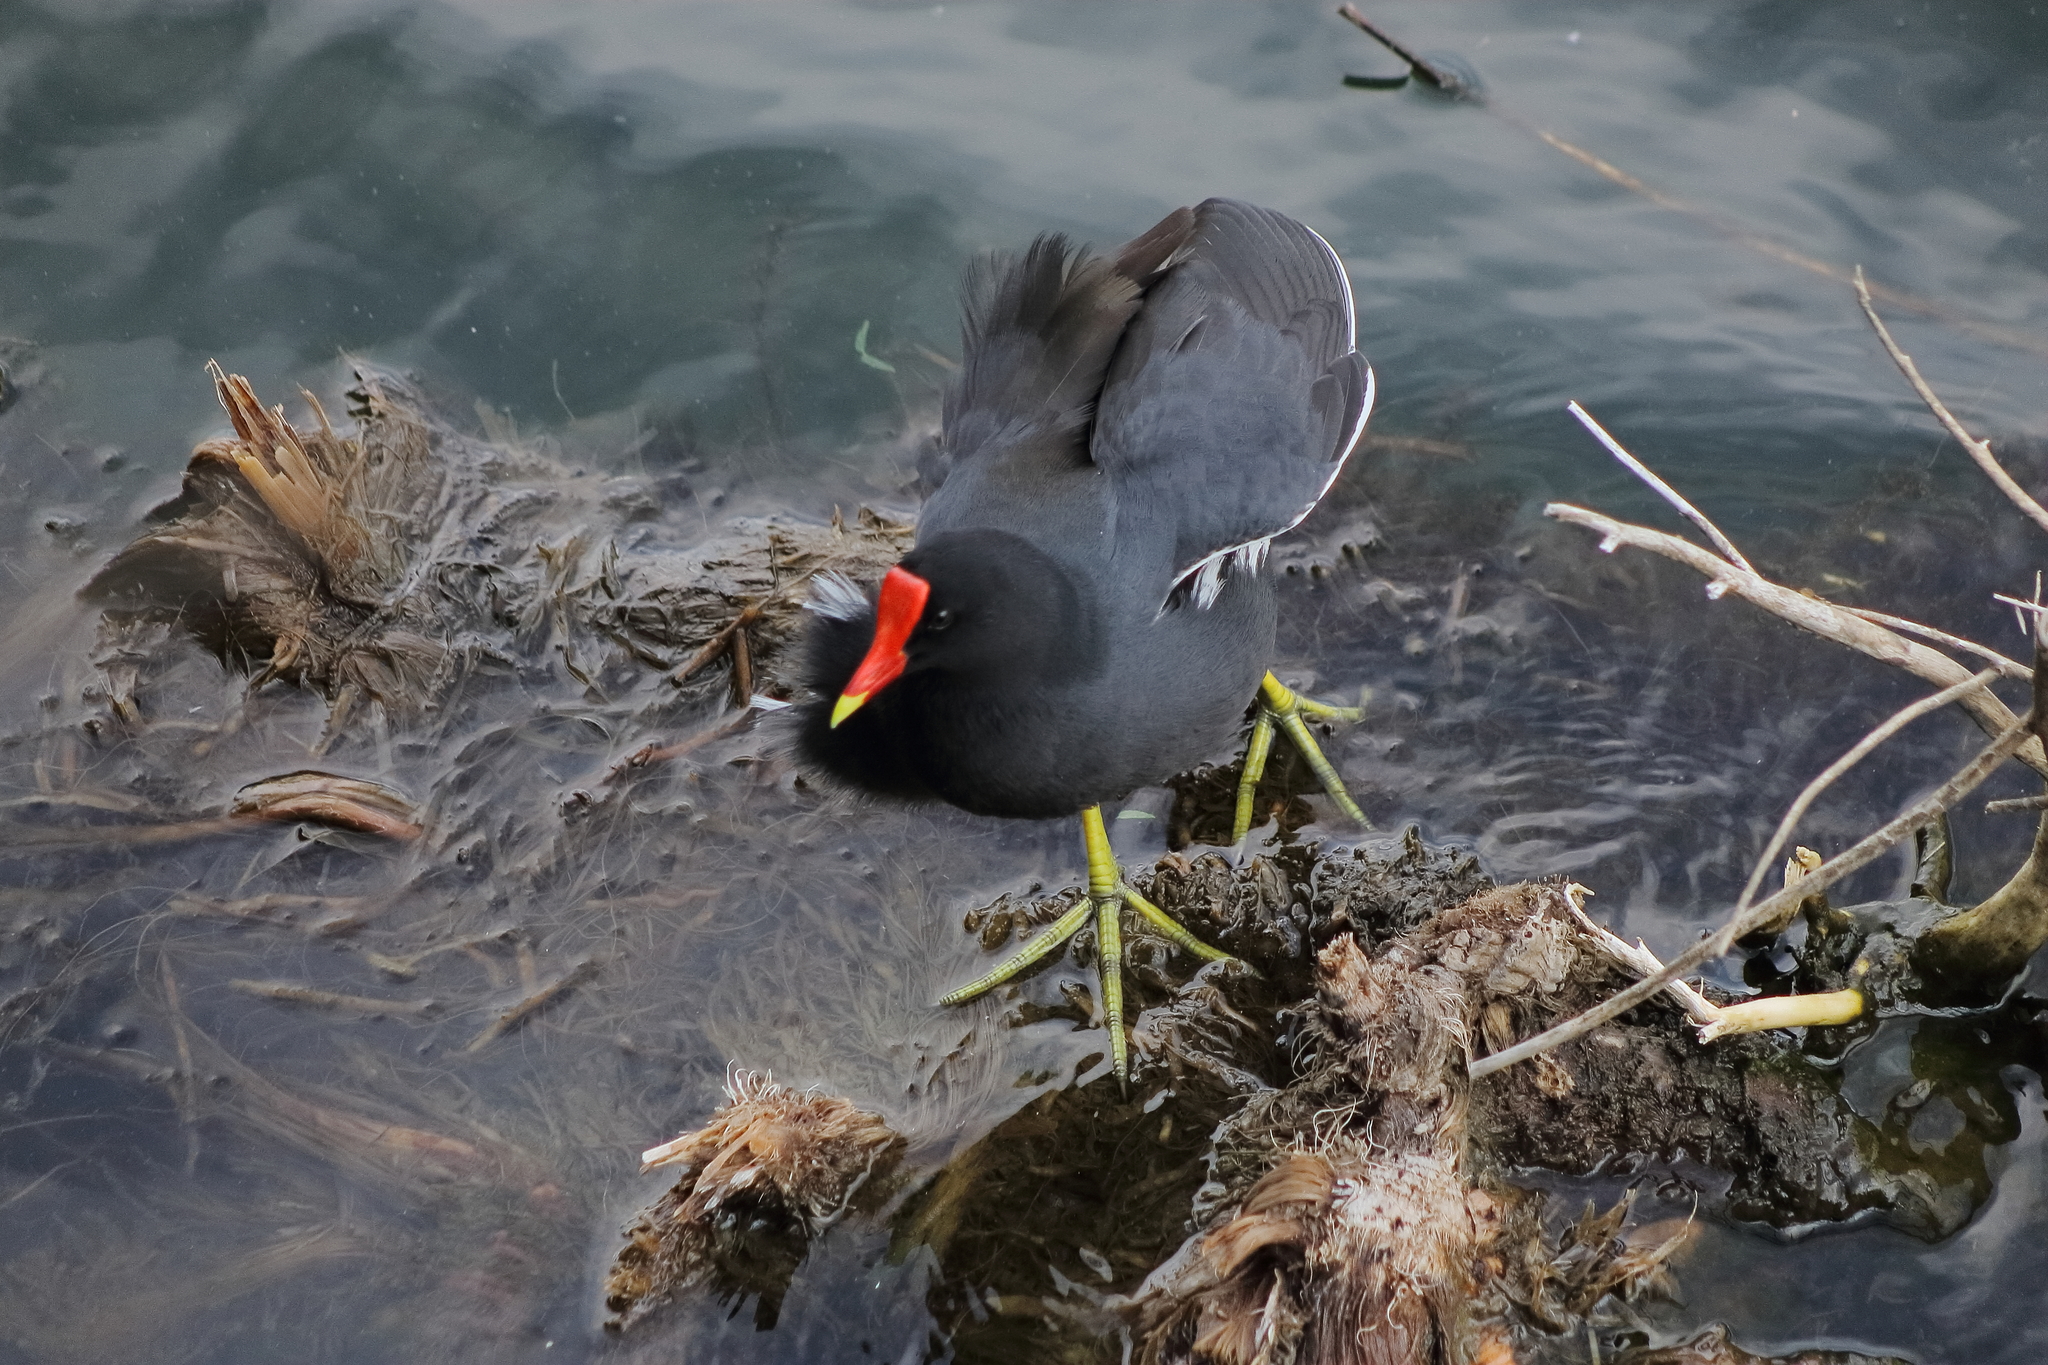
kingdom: Animalia
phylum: Chordata
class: Aves
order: Gruiformes
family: Rallidae
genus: Gallinula
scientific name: Gallinula chloropus
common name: Common moorhen
